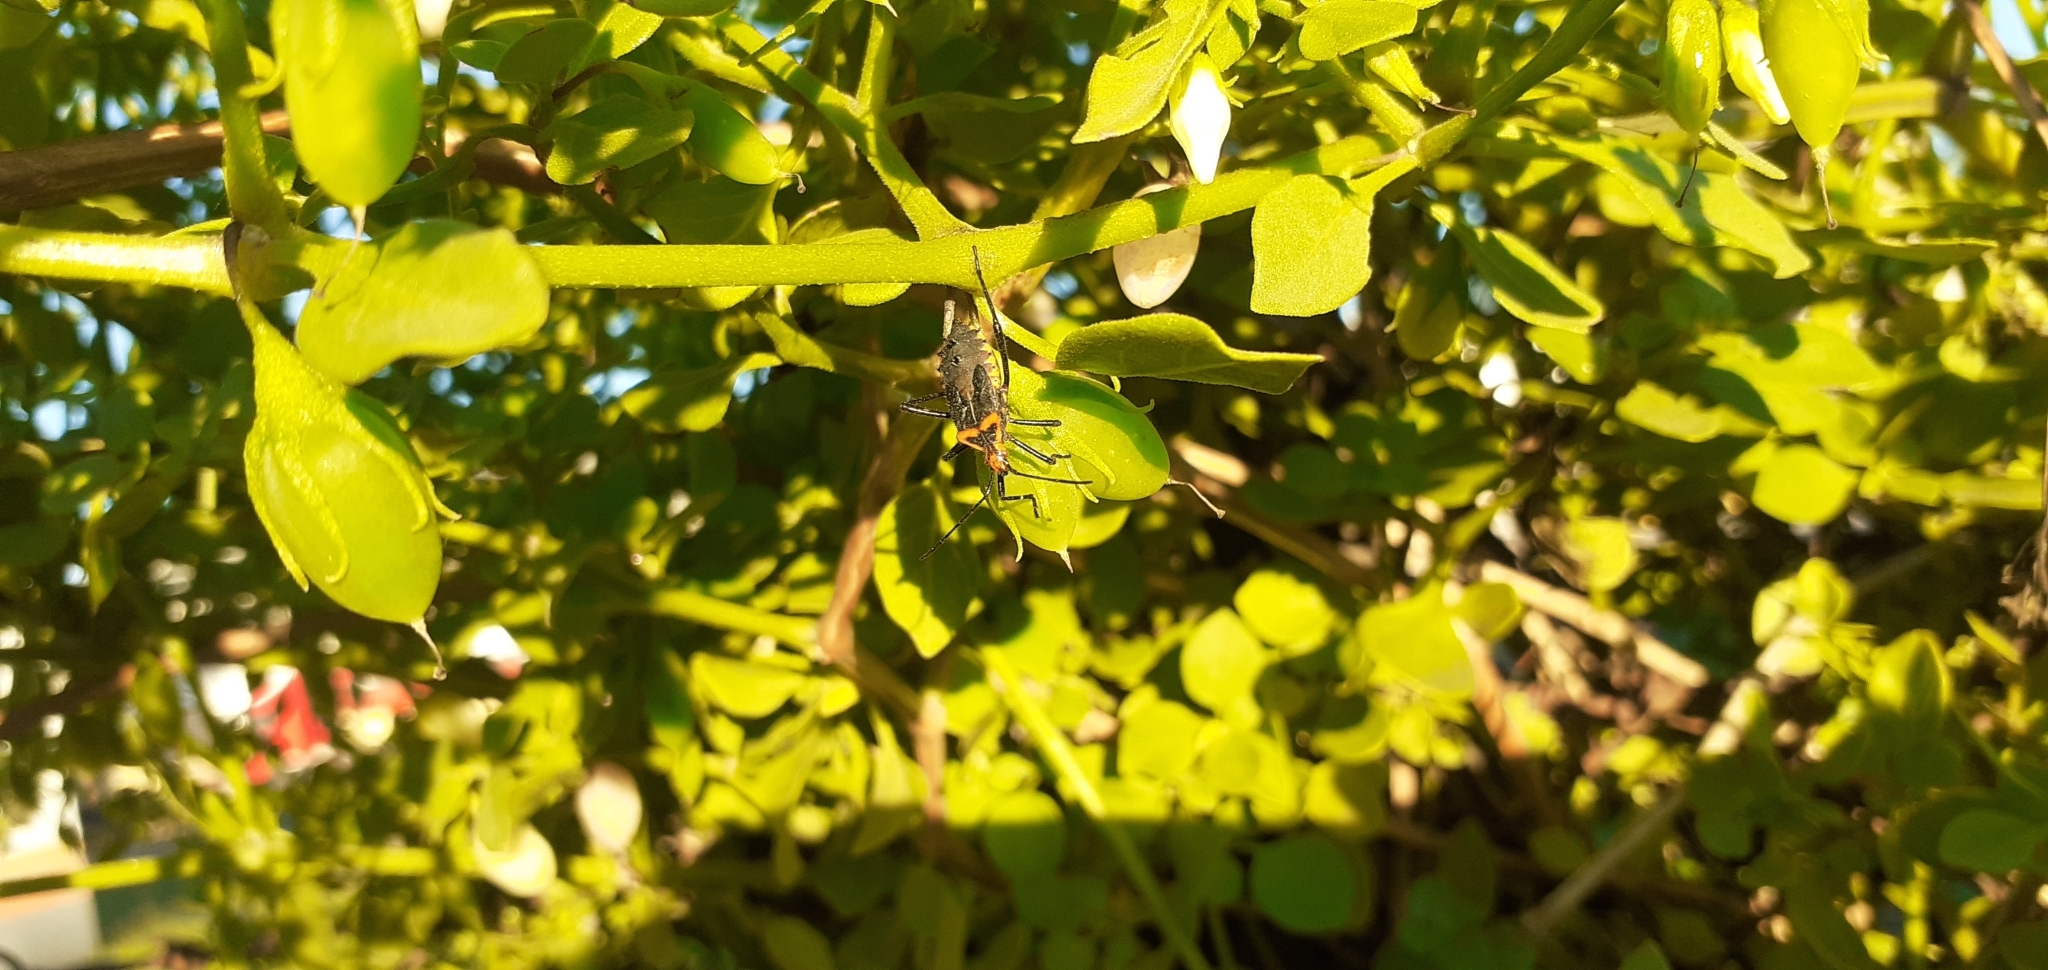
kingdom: Animalia
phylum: Arthropoda
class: Insecta
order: Hemiptera
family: Coreidae
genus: Phthiacnemia
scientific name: Phthiacnemia picta
